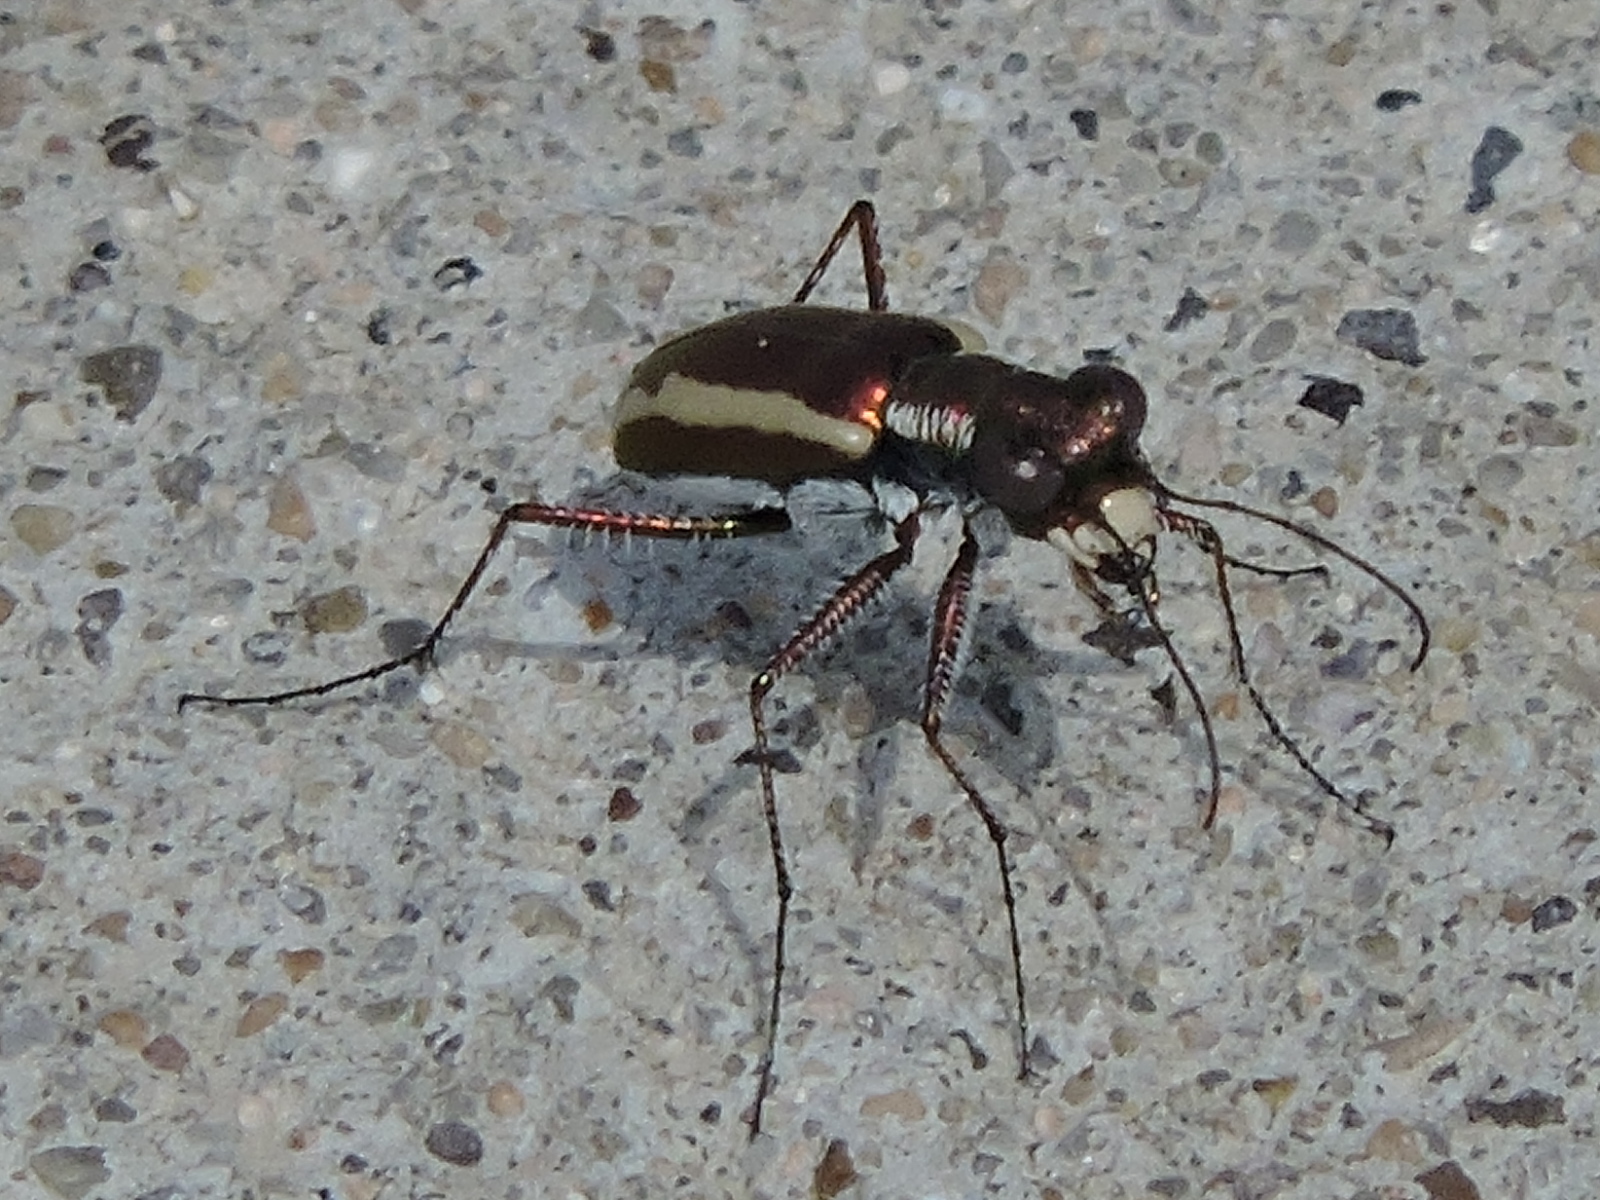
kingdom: Animalia
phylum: Arthropoda
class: Insecta
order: Coleoptera
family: Carabidae
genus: Cylindera
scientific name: Cylindera lemniscata
